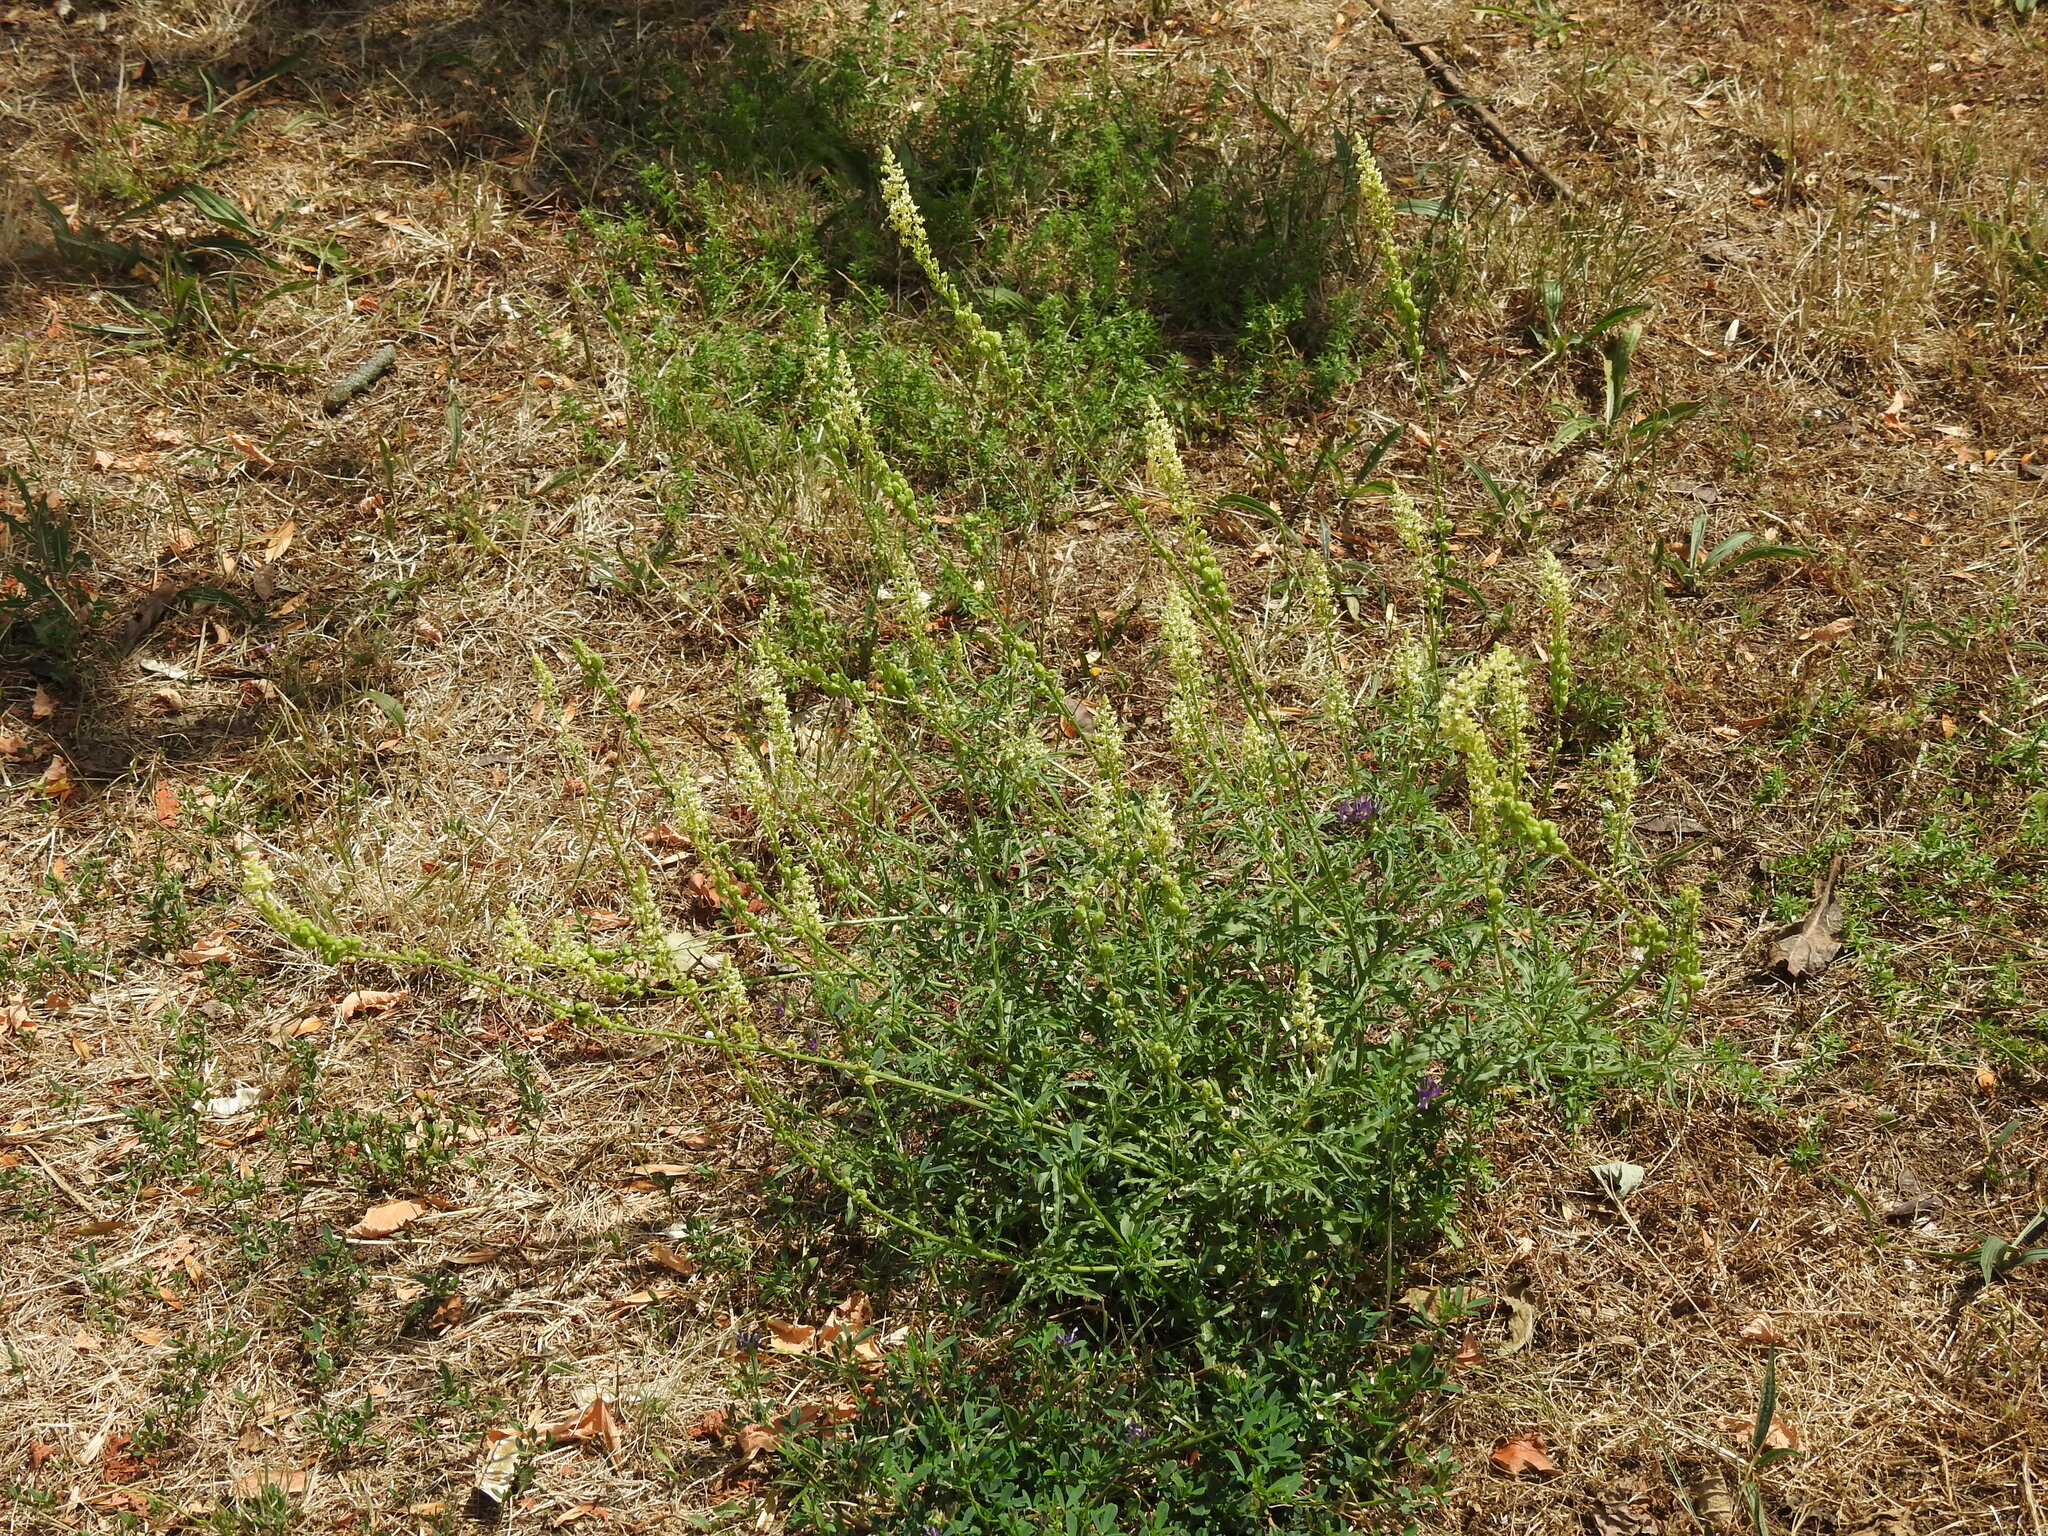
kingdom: Plantae
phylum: Tracheophyta
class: Magnoliopsida
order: Brassicales
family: Resedaceae
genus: Reseda
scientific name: Reseda lutea
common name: Wild mignonette
